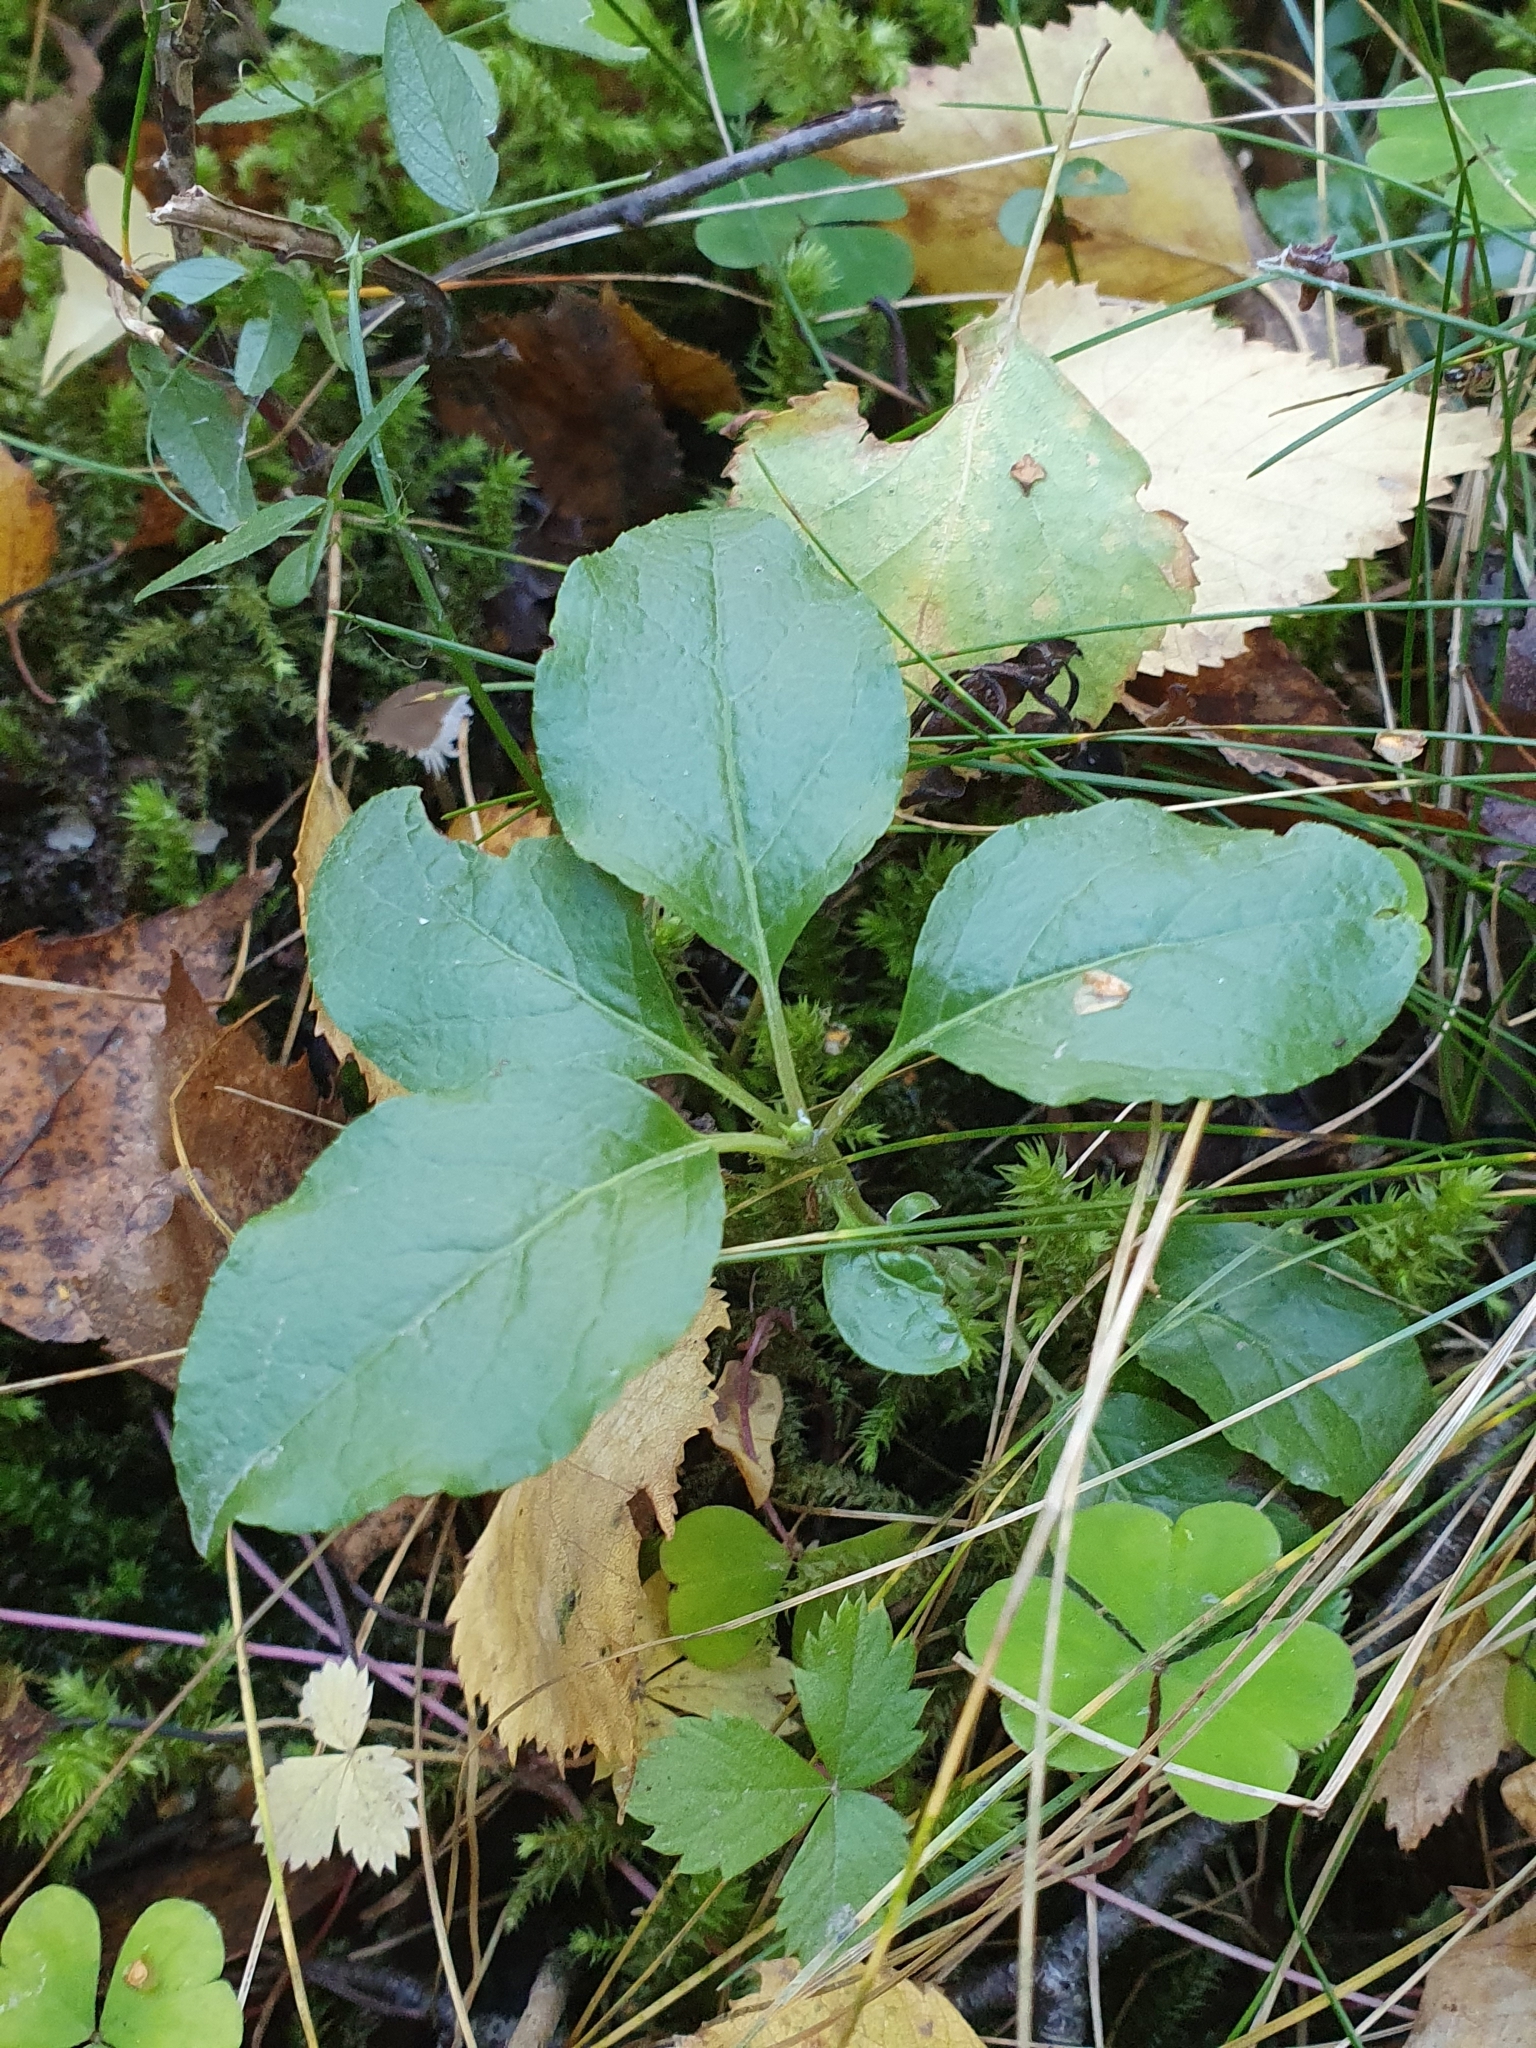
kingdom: Plantae
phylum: Tracheophyta
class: Magnoliopsida
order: Ericales
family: Ericaceae
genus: Orthilia
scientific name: Orthilia secunda
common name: One-sided orthilia
